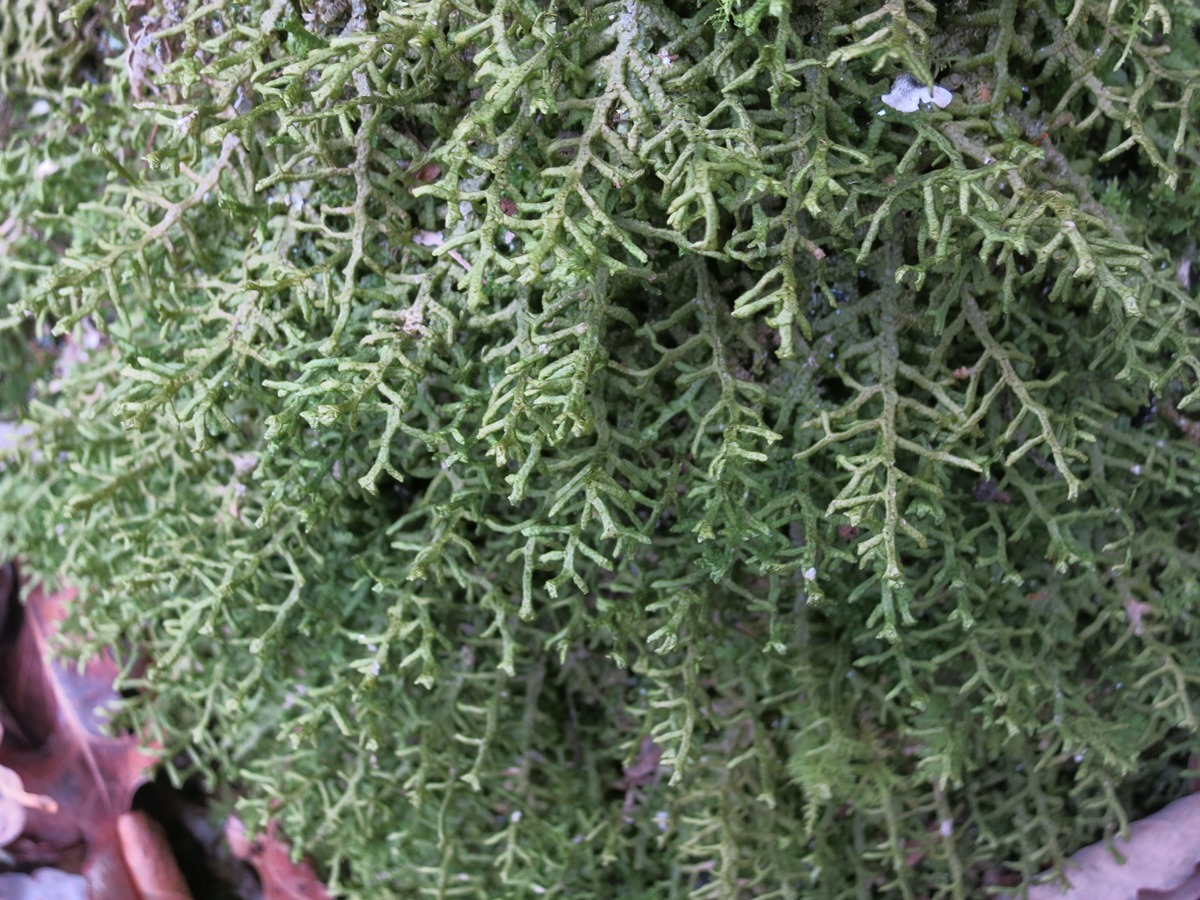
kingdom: Plantae
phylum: Marchantiophyta
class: Jungermanniopsida
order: Porellales
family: Porellaceae
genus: Porella
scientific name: Porella platyphylla
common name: Wall scalewort
